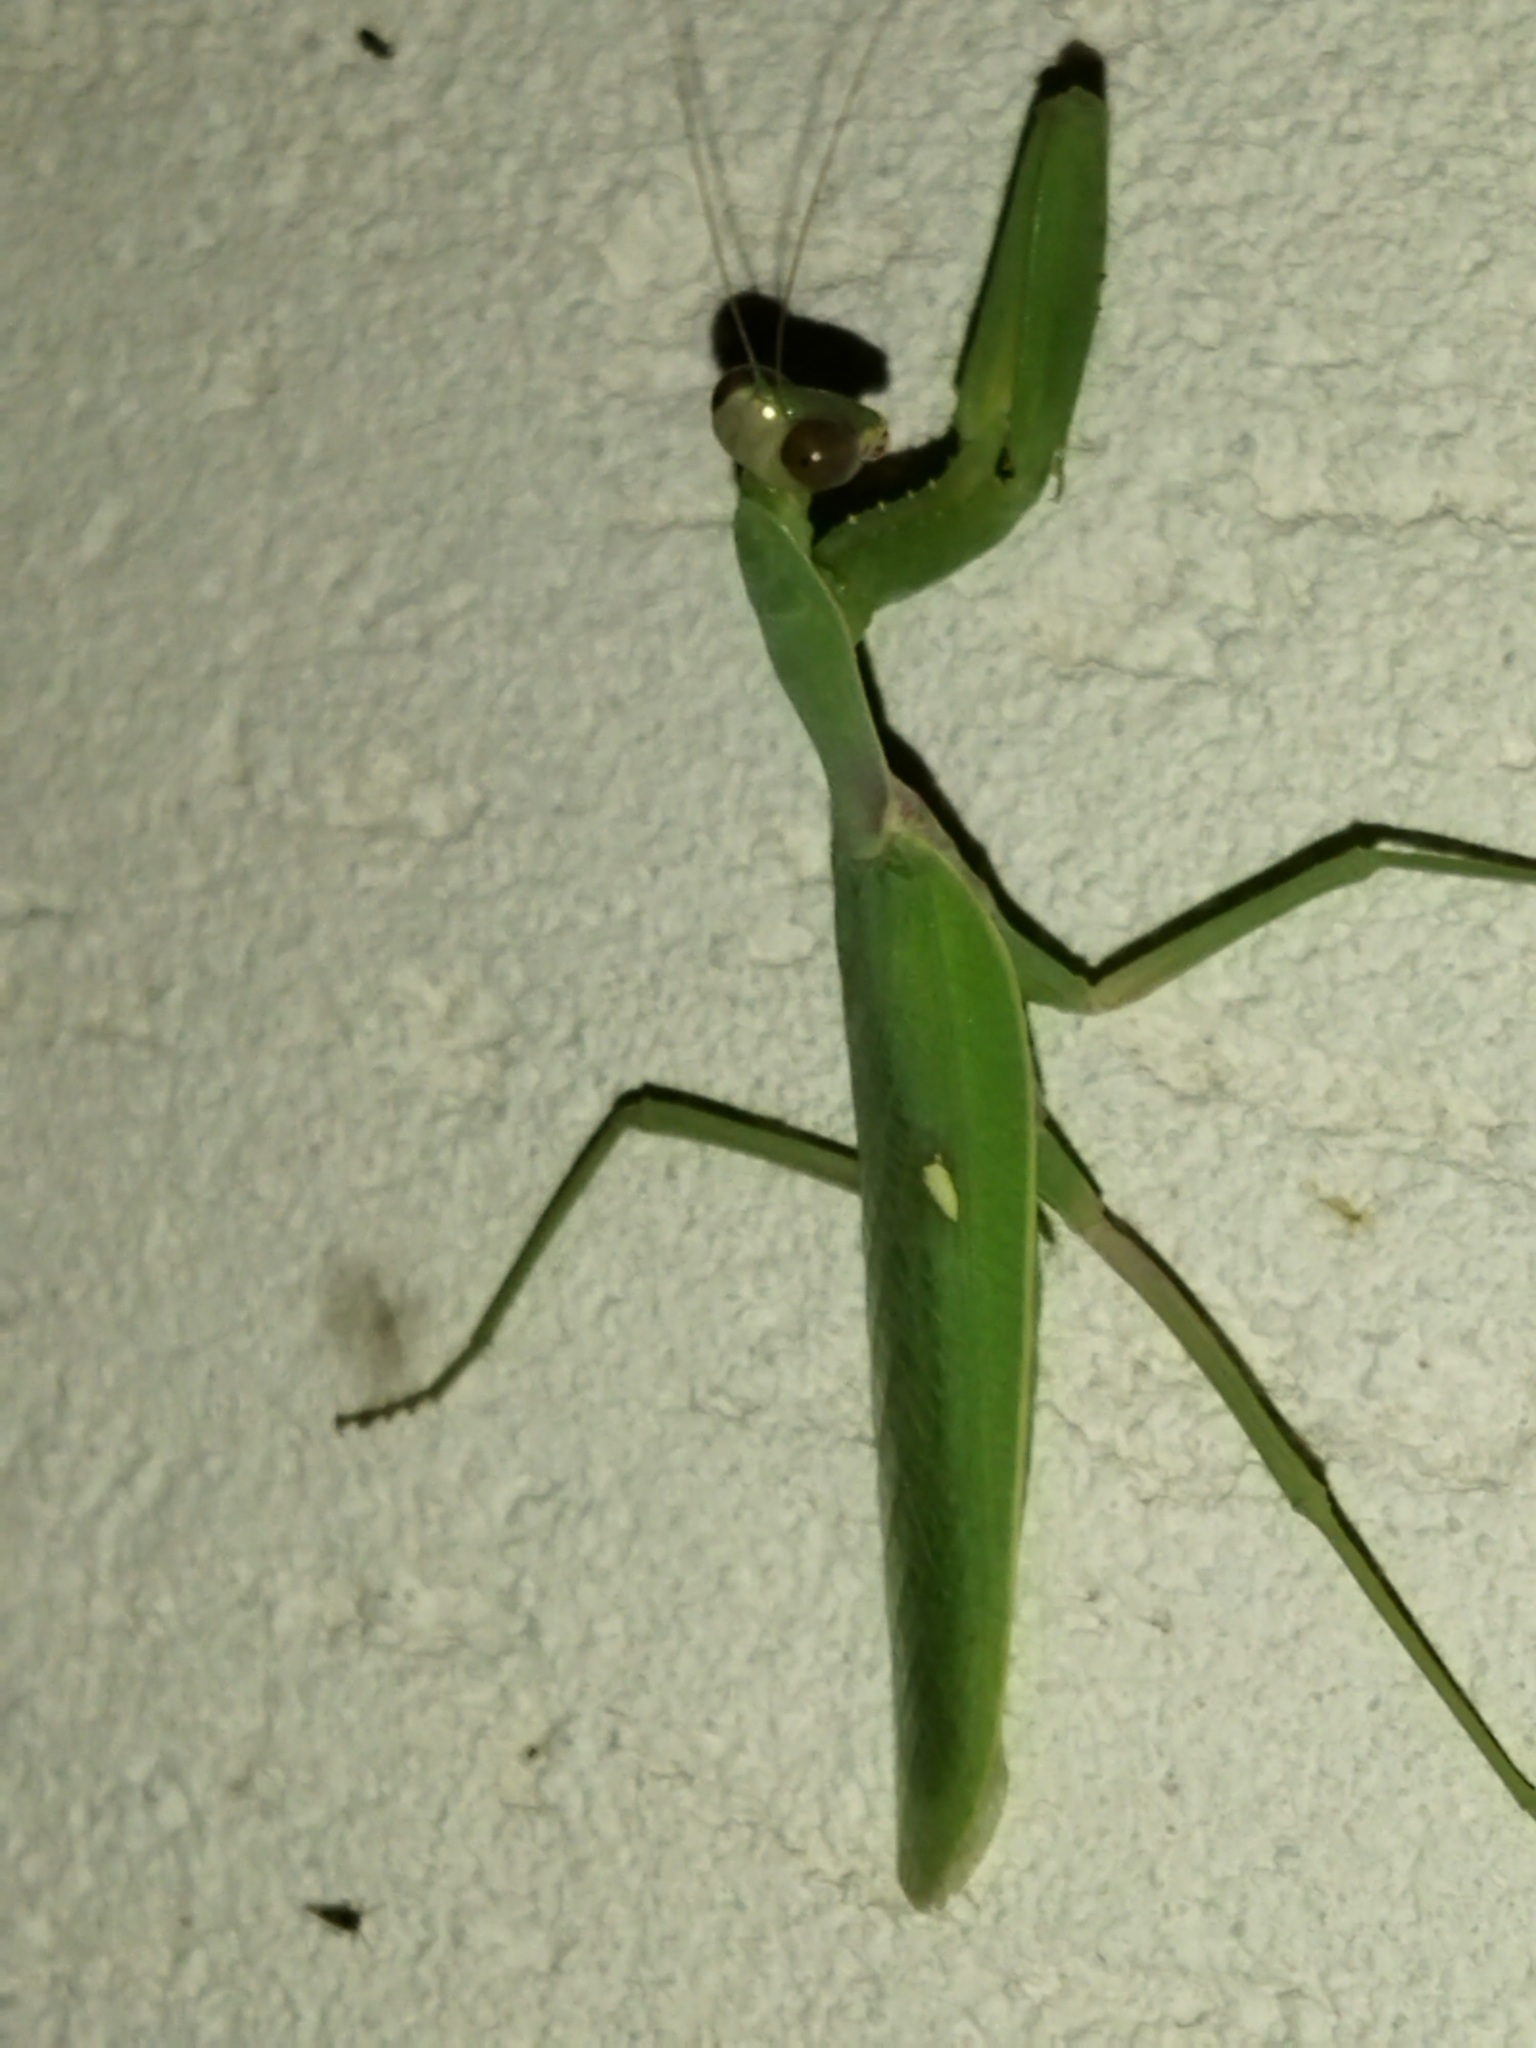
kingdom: Animalia
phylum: Arthropoda
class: Insecta
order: Mantodea
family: Mantidae
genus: Hierodula
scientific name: Hierodula transcaucasica
